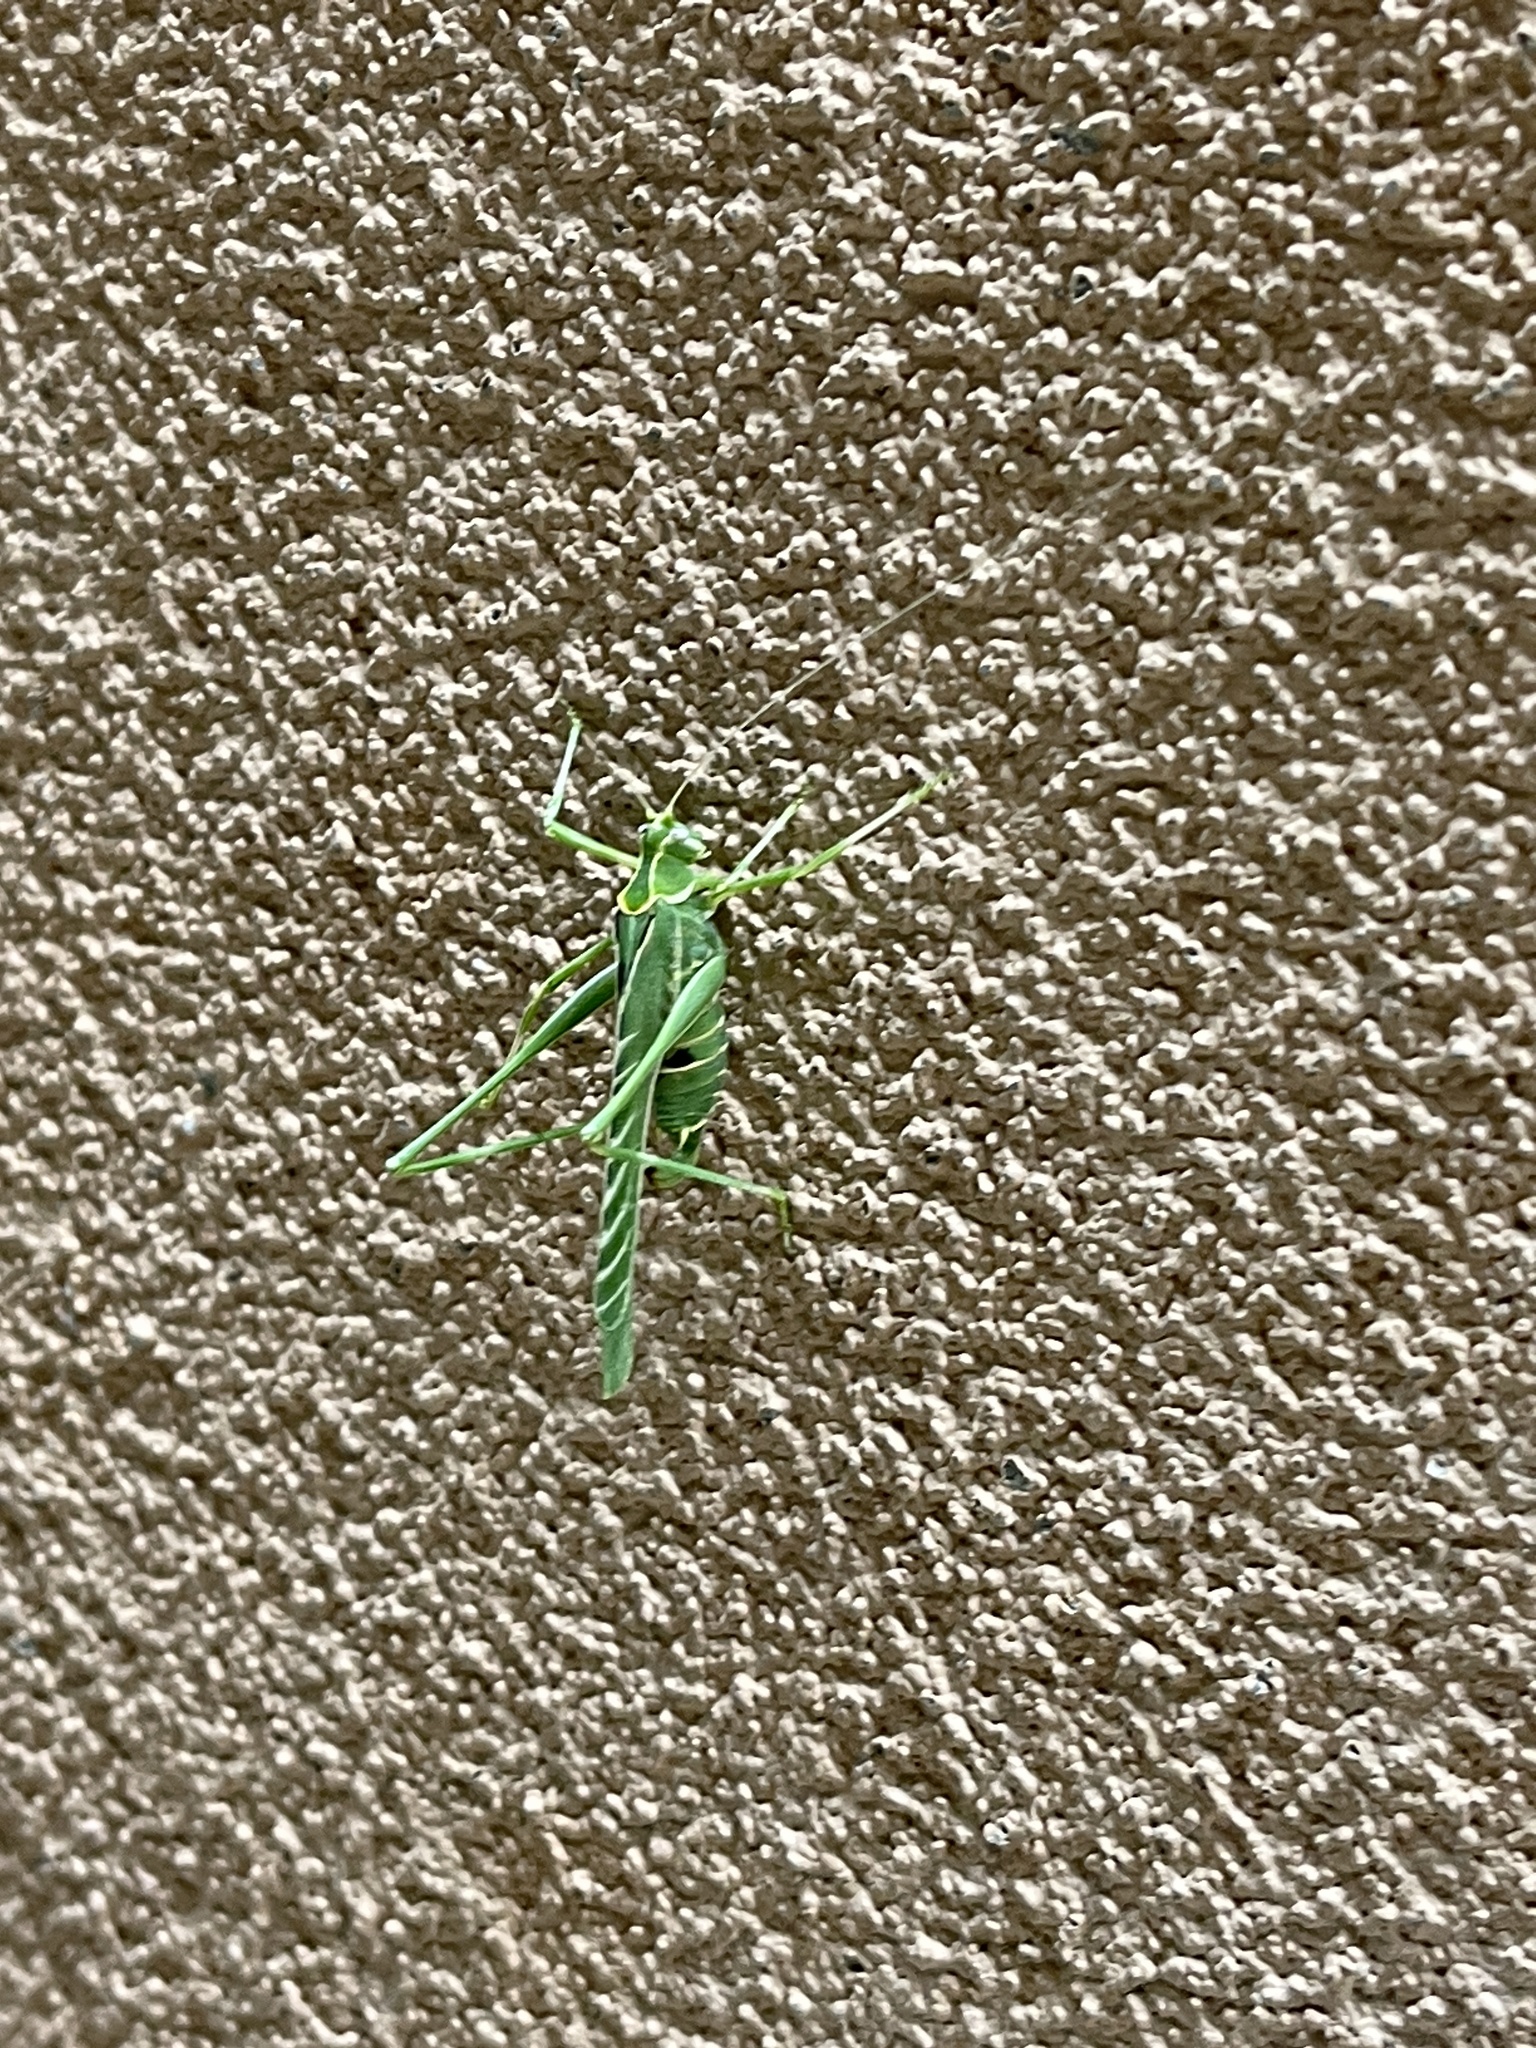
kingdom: Animalia
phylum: Arthropoda
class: Insecta
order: Orthoptera
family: Tettigoniidae
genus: Insara
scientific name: Insara elegans
